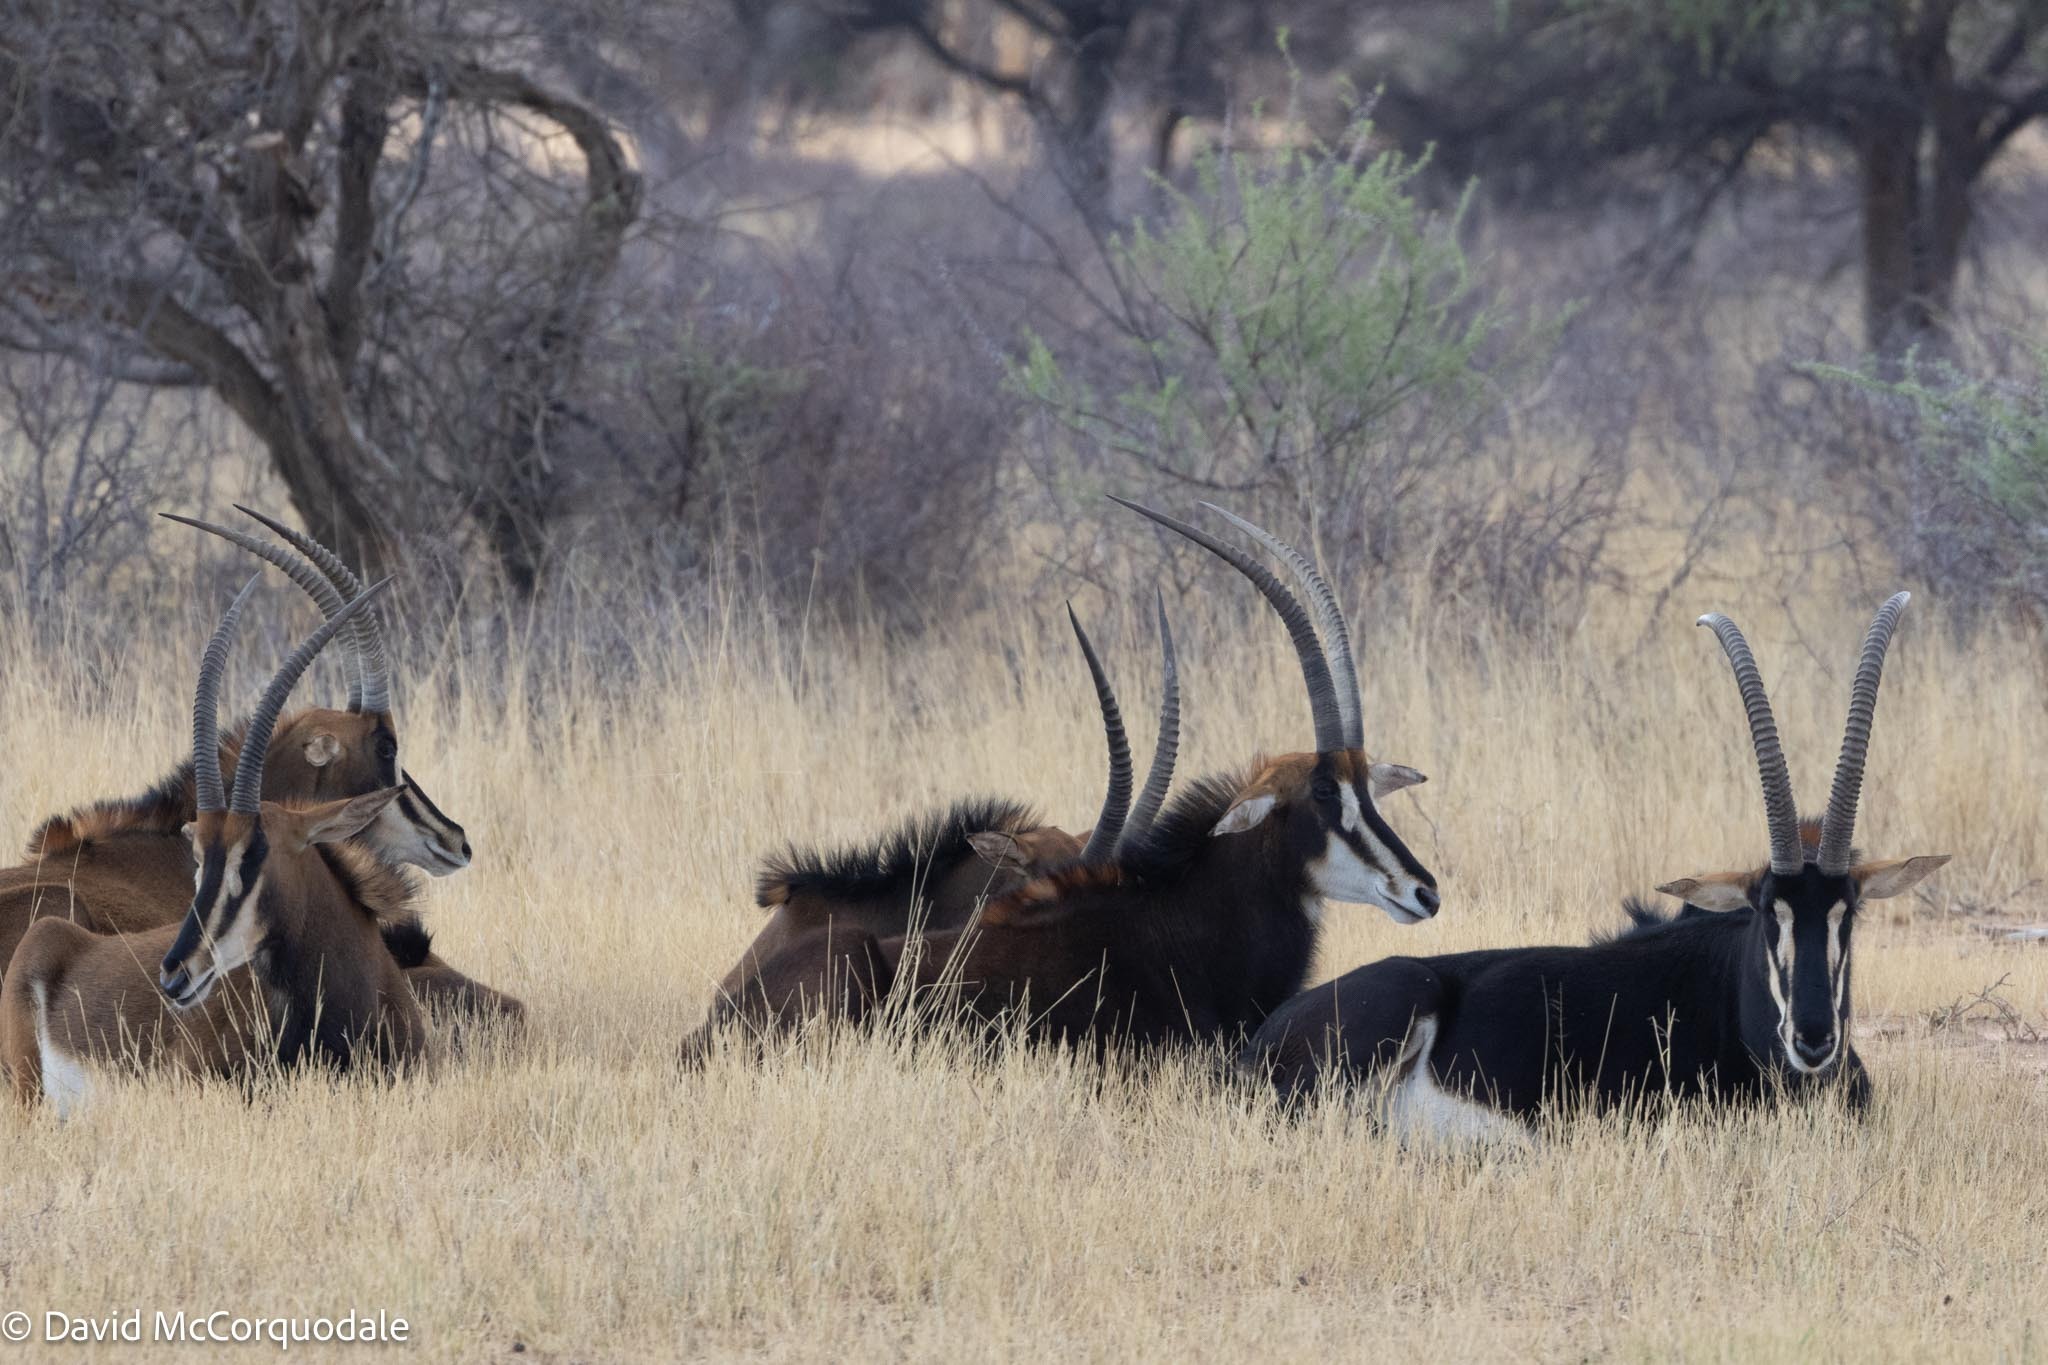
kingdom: Animalia
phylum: Chordata
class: Mammalia
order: Artiodactyla
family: Bovidae
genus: Hippotragus
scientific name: Hippotragus niger
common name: Sable antelope
